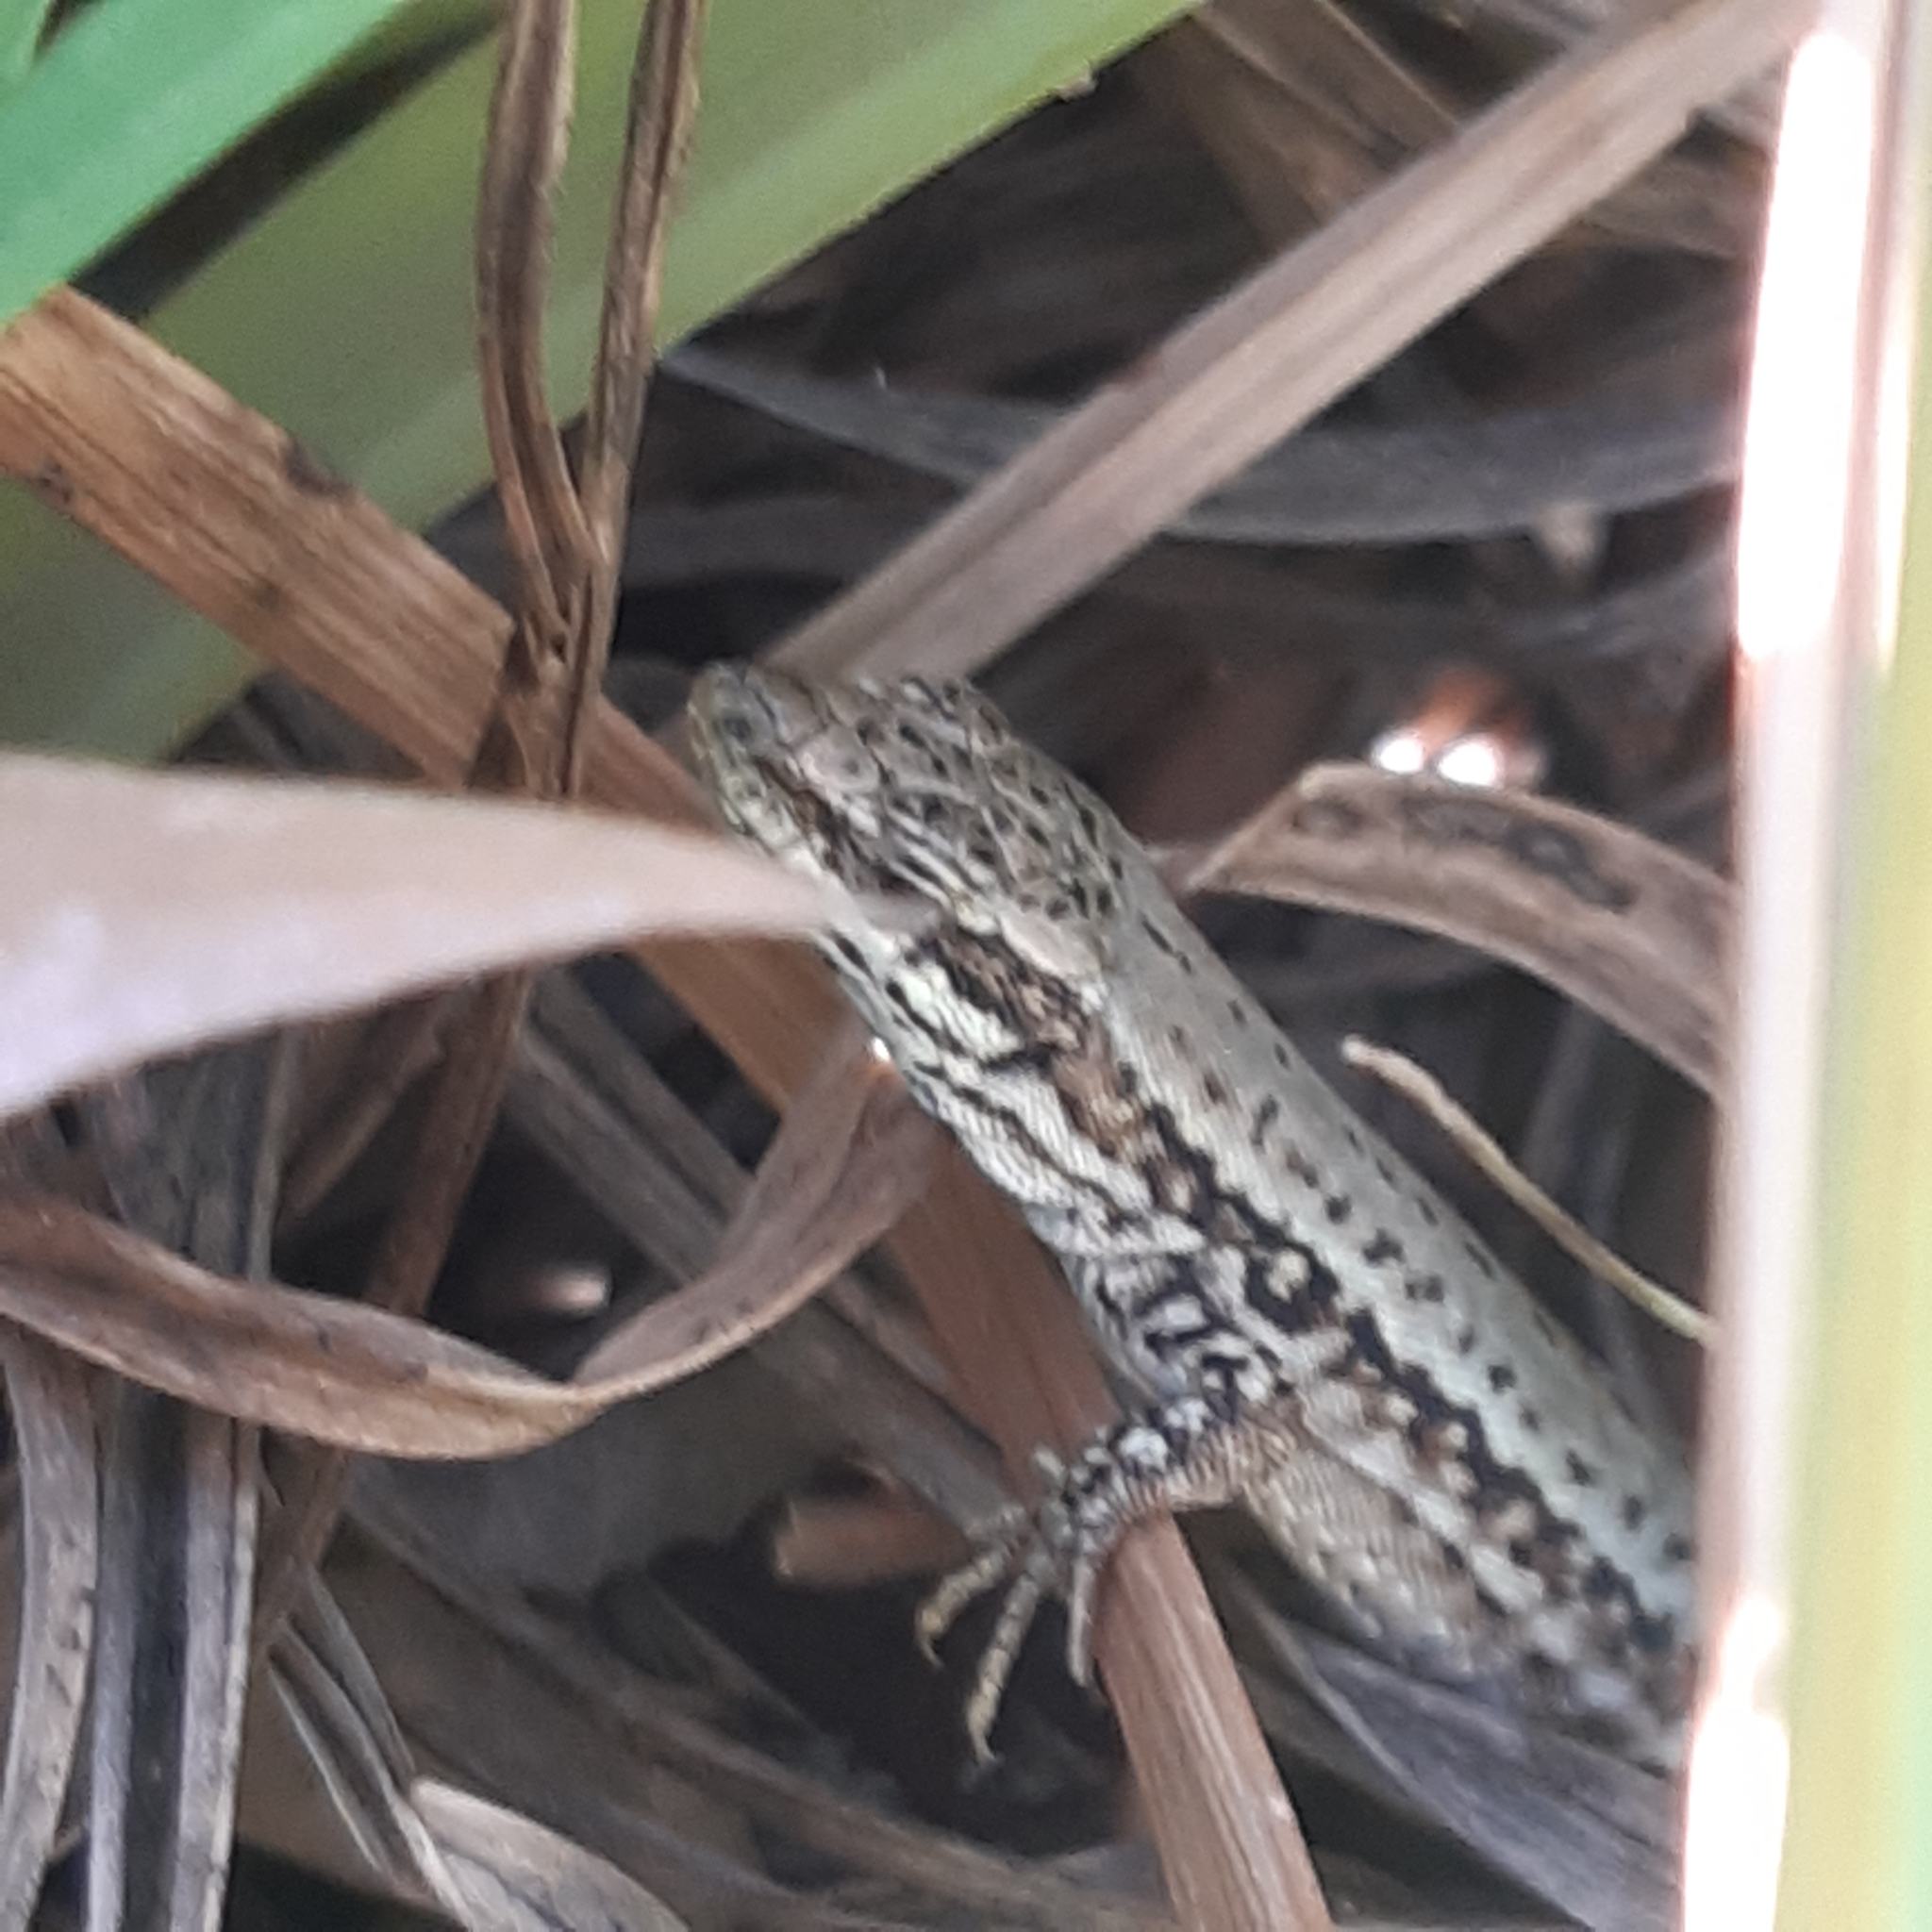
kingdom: Animalia
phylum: Chordata
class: Squamata
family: Lacertidae
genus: Podarcis
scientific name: Podarcis muralis
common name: Common wall lizard
